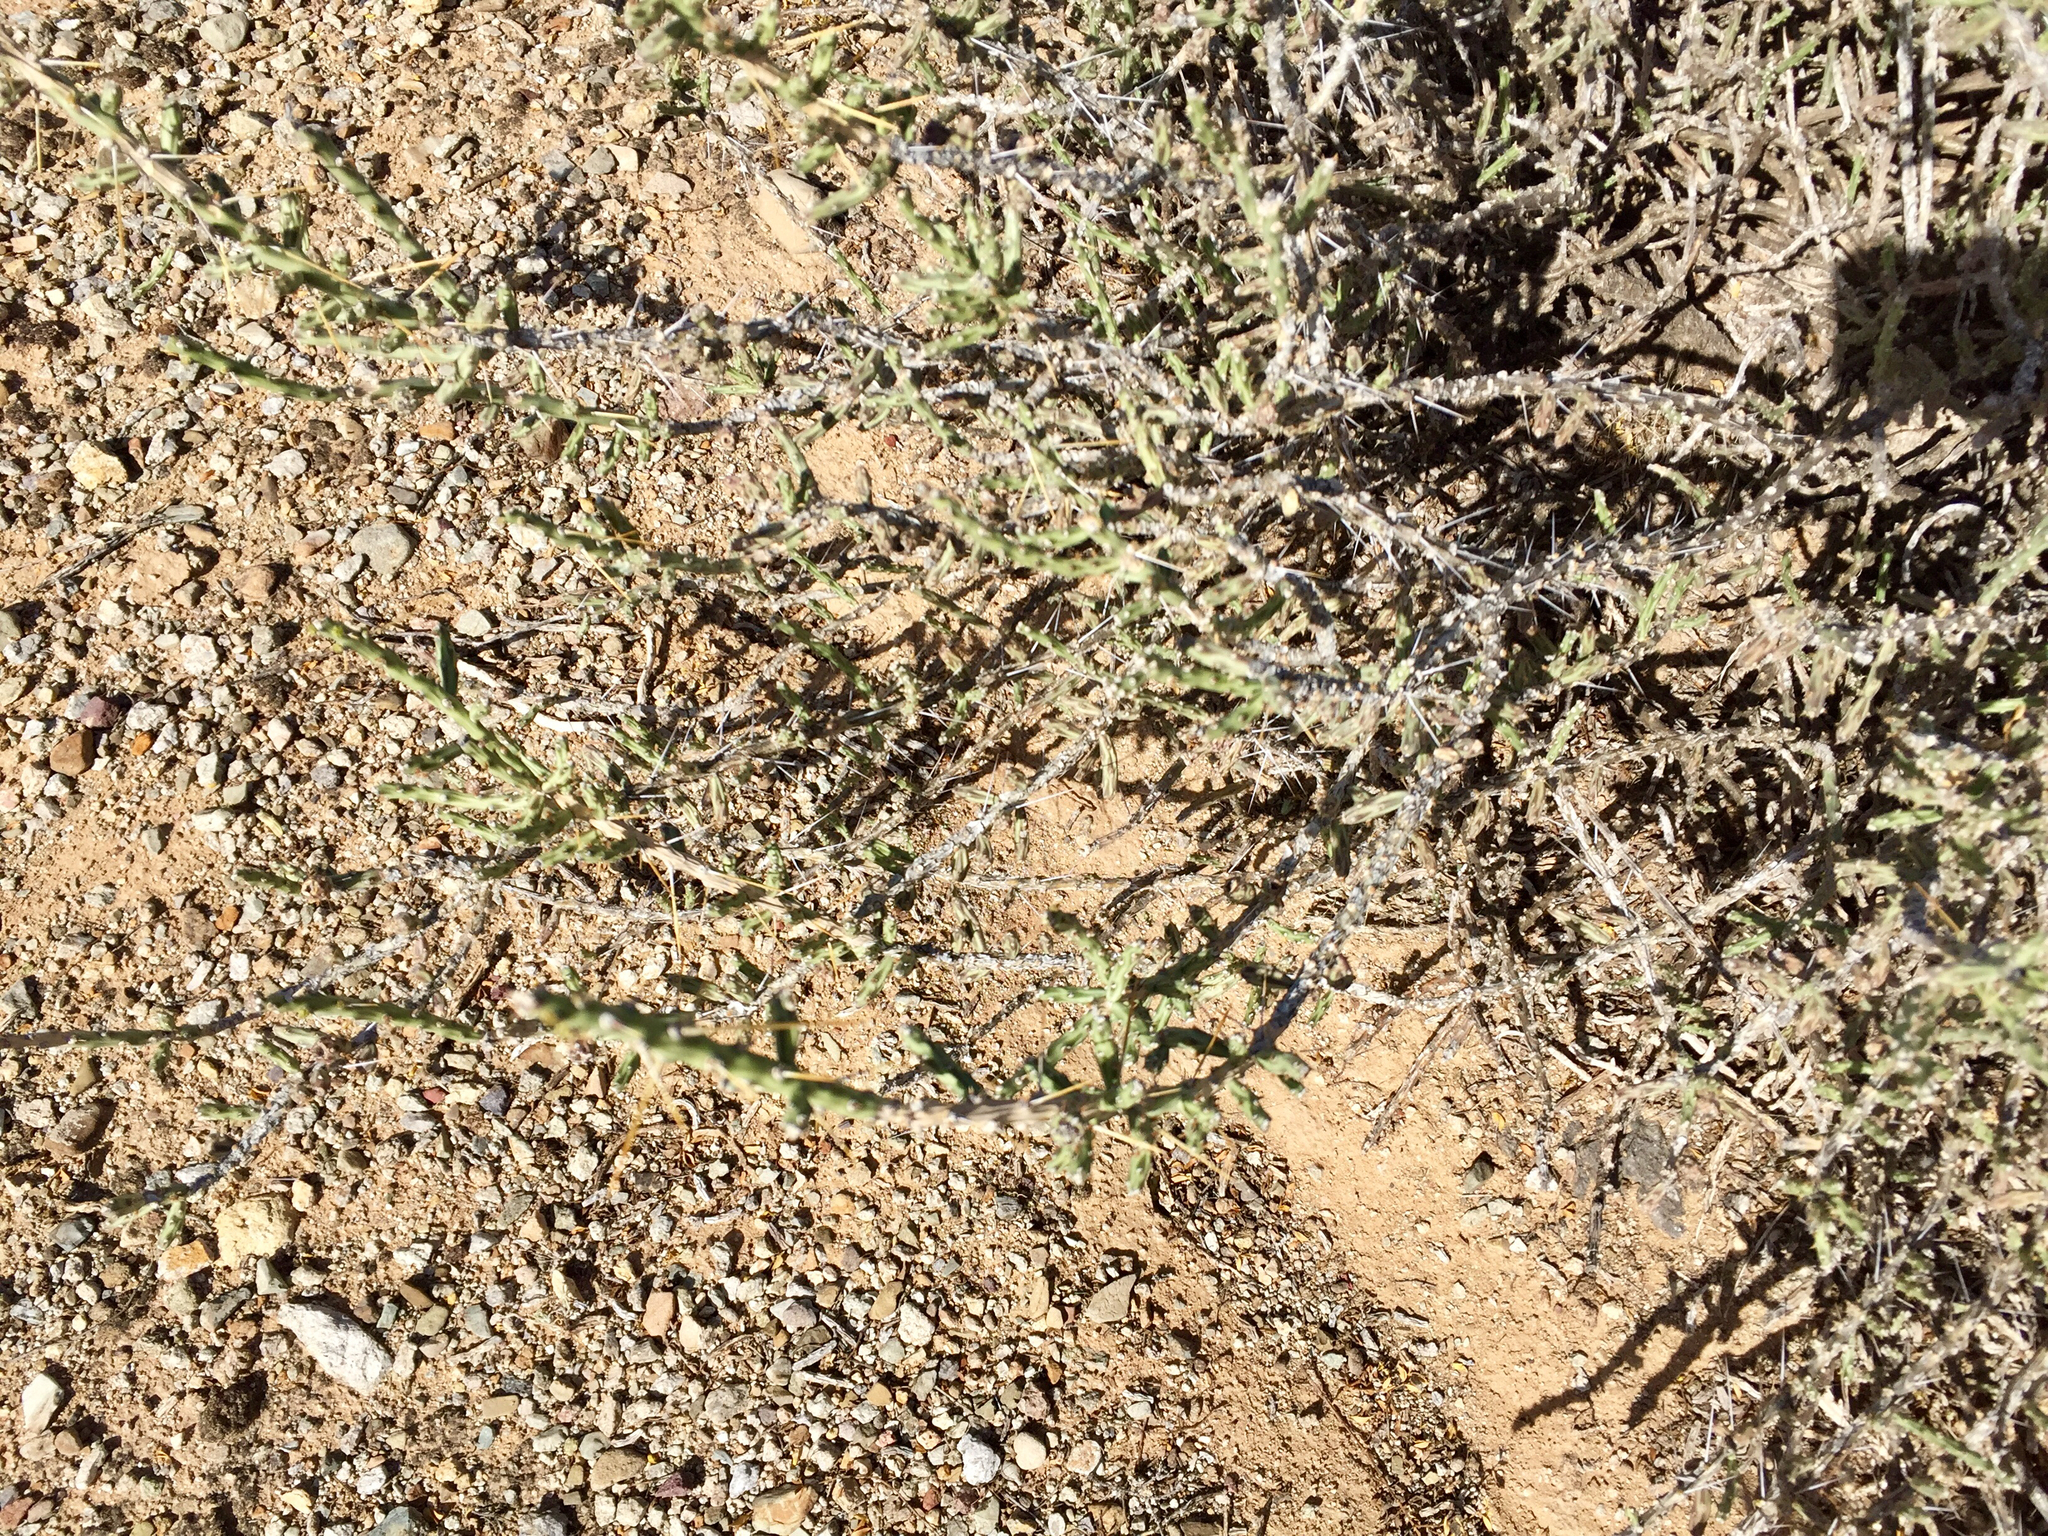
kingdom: Plantae
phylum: Tracheophyta
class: Magnoliopsida
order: Caryophyllales
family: Cactaceae
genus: Cylindropuntia
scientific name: Cylindropuntia leptocaulis
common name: Christmas cactus
